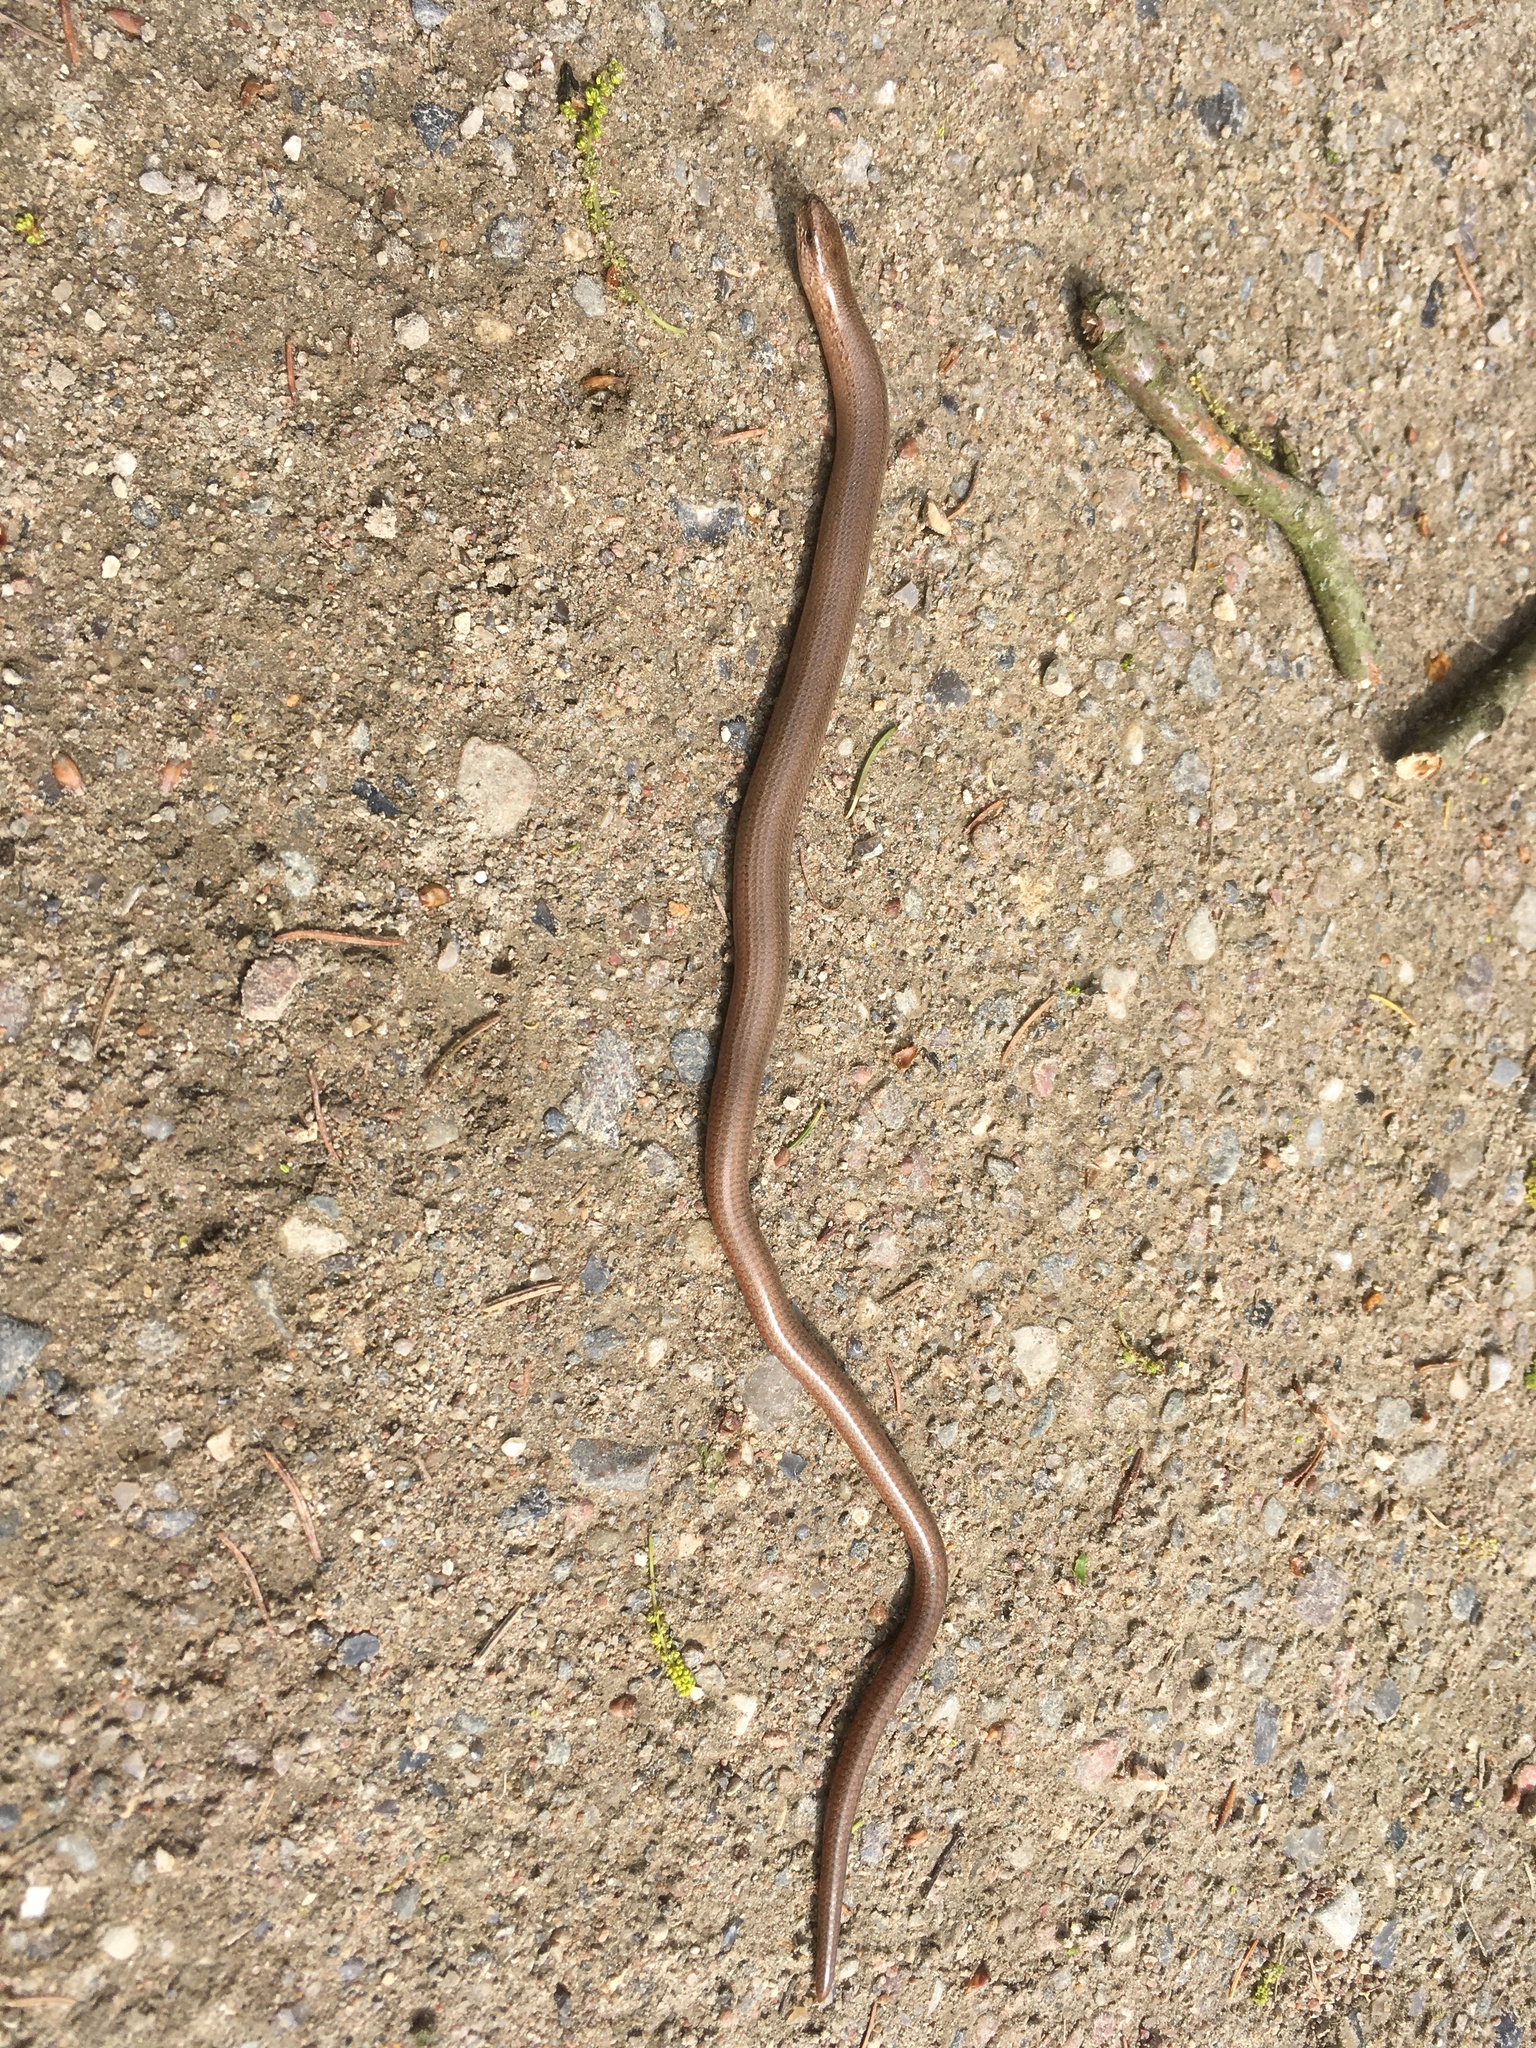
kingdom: Animalia
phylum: Chordata
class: Squamata
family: Anguidae
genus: Anguis
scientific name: Anguis fragilis
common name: Slow worm
